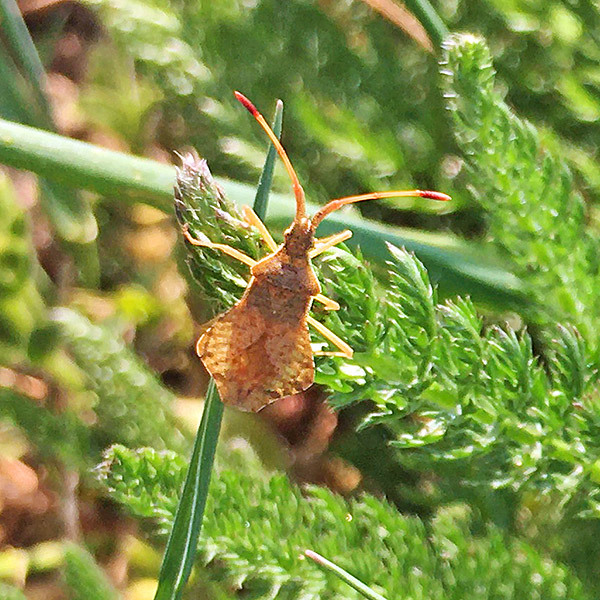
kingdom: Animalia
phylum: Arthropoda
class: Insecta
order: Hemiptera
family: Coreidae
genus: Syromastus
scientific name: Syromastus rhombeus
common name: Rhombic leatherbug
